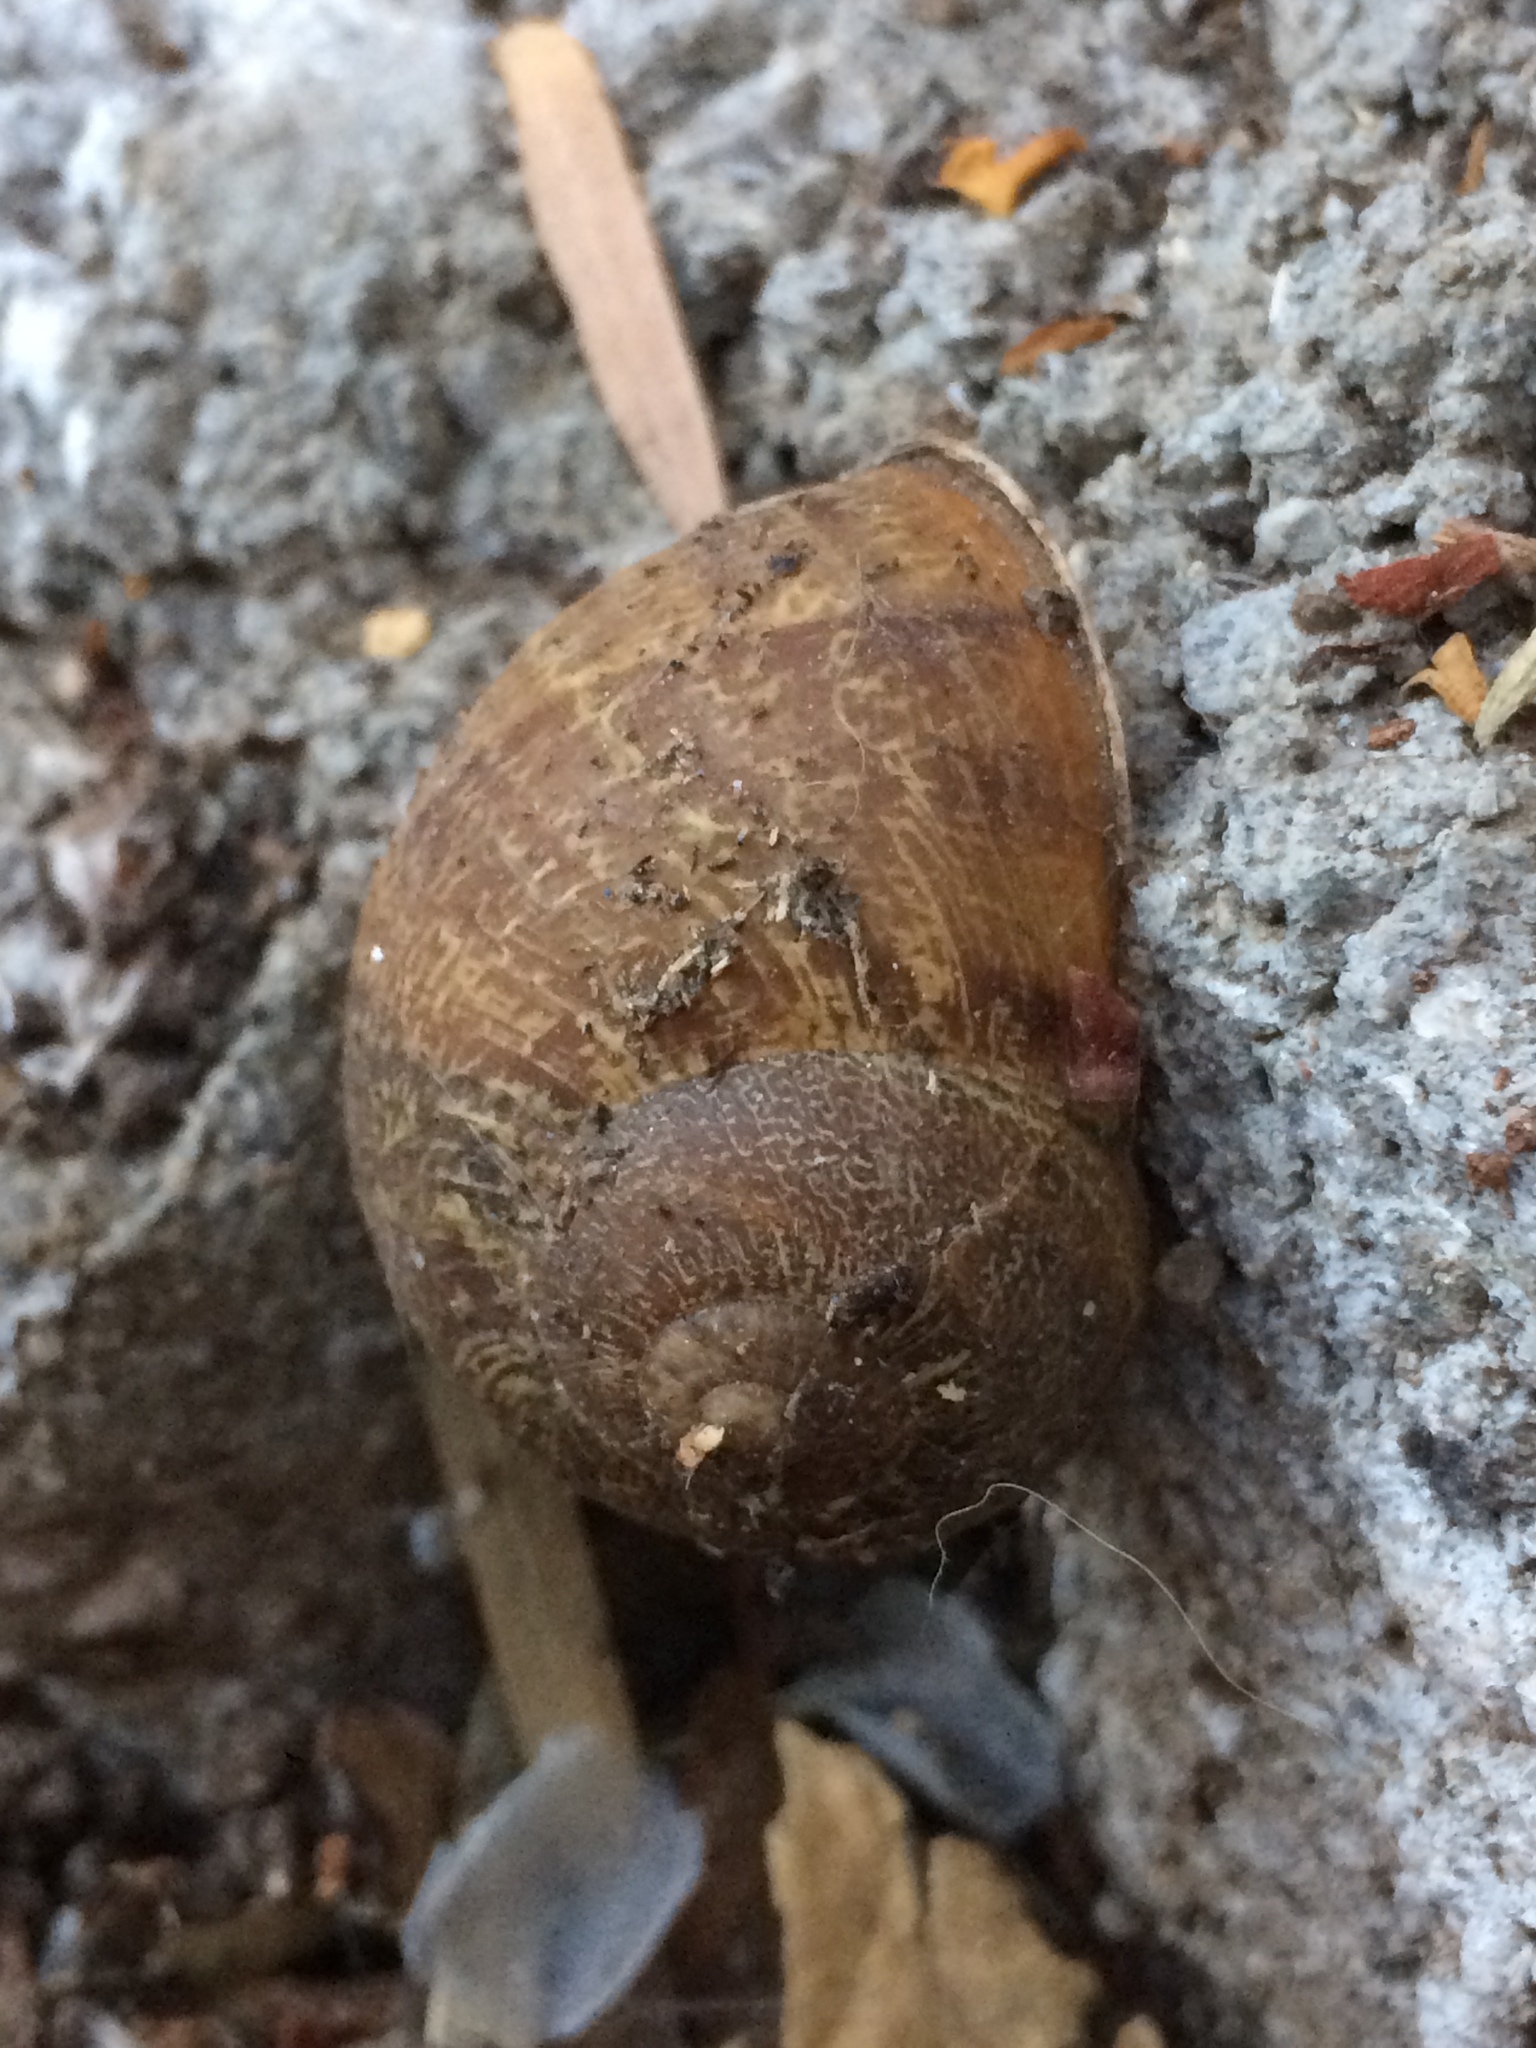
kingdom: Animalia
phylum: Mollusca
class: Gastropoda
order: Stylommatophora
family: Helicidae
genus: Cornu
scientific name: Cornu aspersum
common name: Brown garden snail
